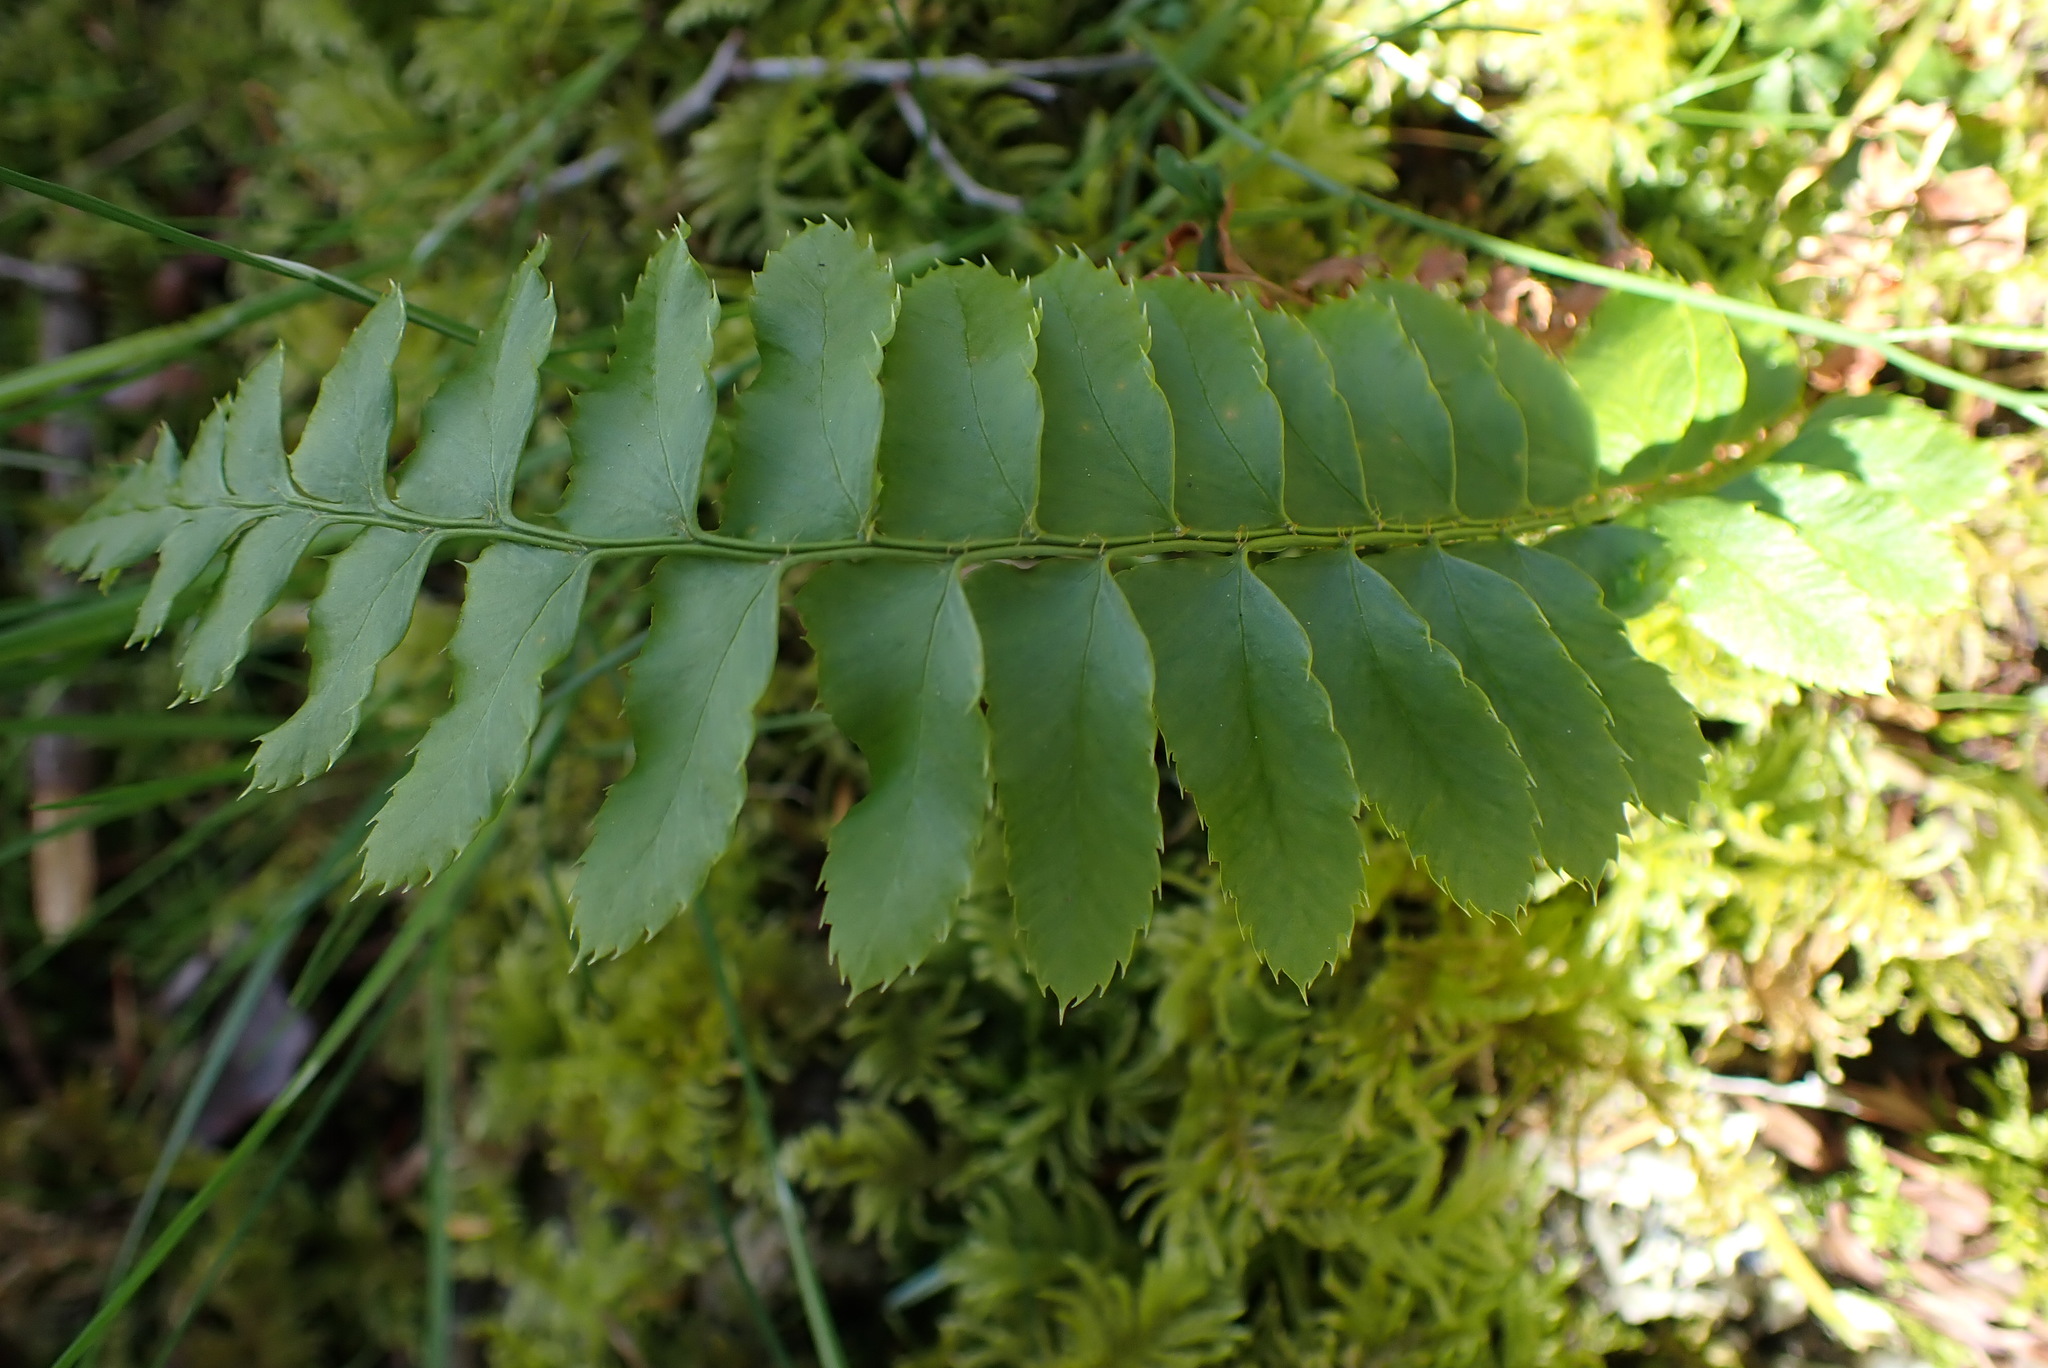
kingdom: Plantae
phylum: Tracheophyta
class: Polypodiopsida
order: Polypodiales
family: Dryopteridaceae
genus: Polystichum
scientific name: Polystichum munitum
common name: Western sword-fern
